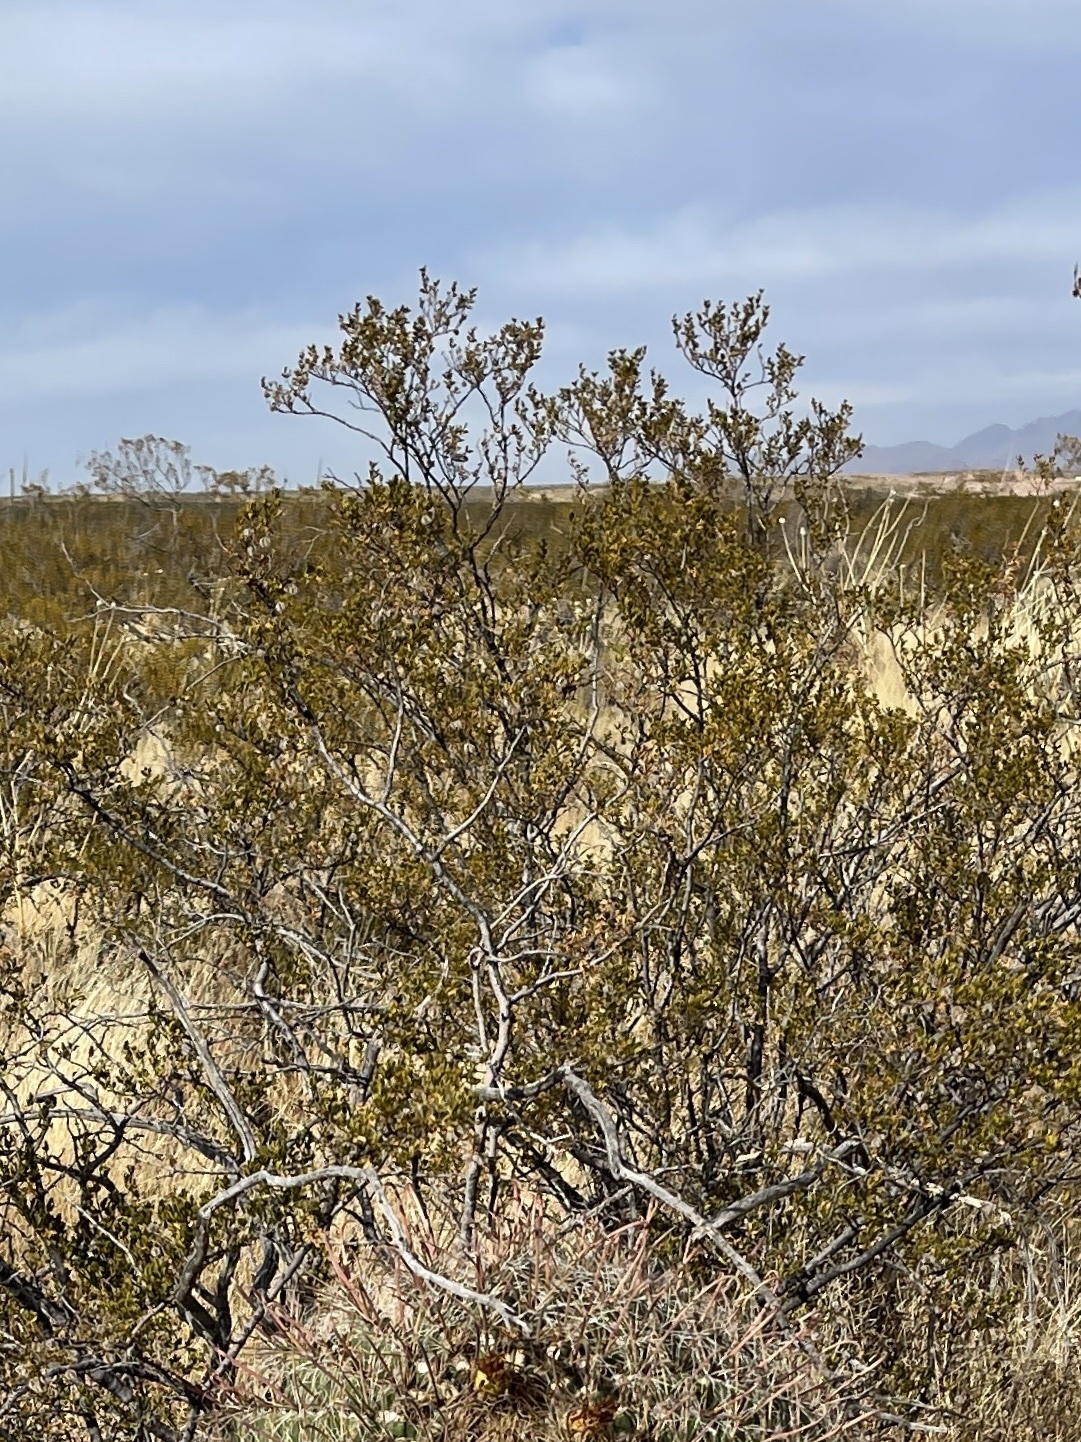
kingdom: Plantae
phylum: Tracheophyta
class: Magnoliopsida
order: Zygophyllales
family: Zygophyllaceae
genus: Larrea
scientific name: Larrea tridentata
